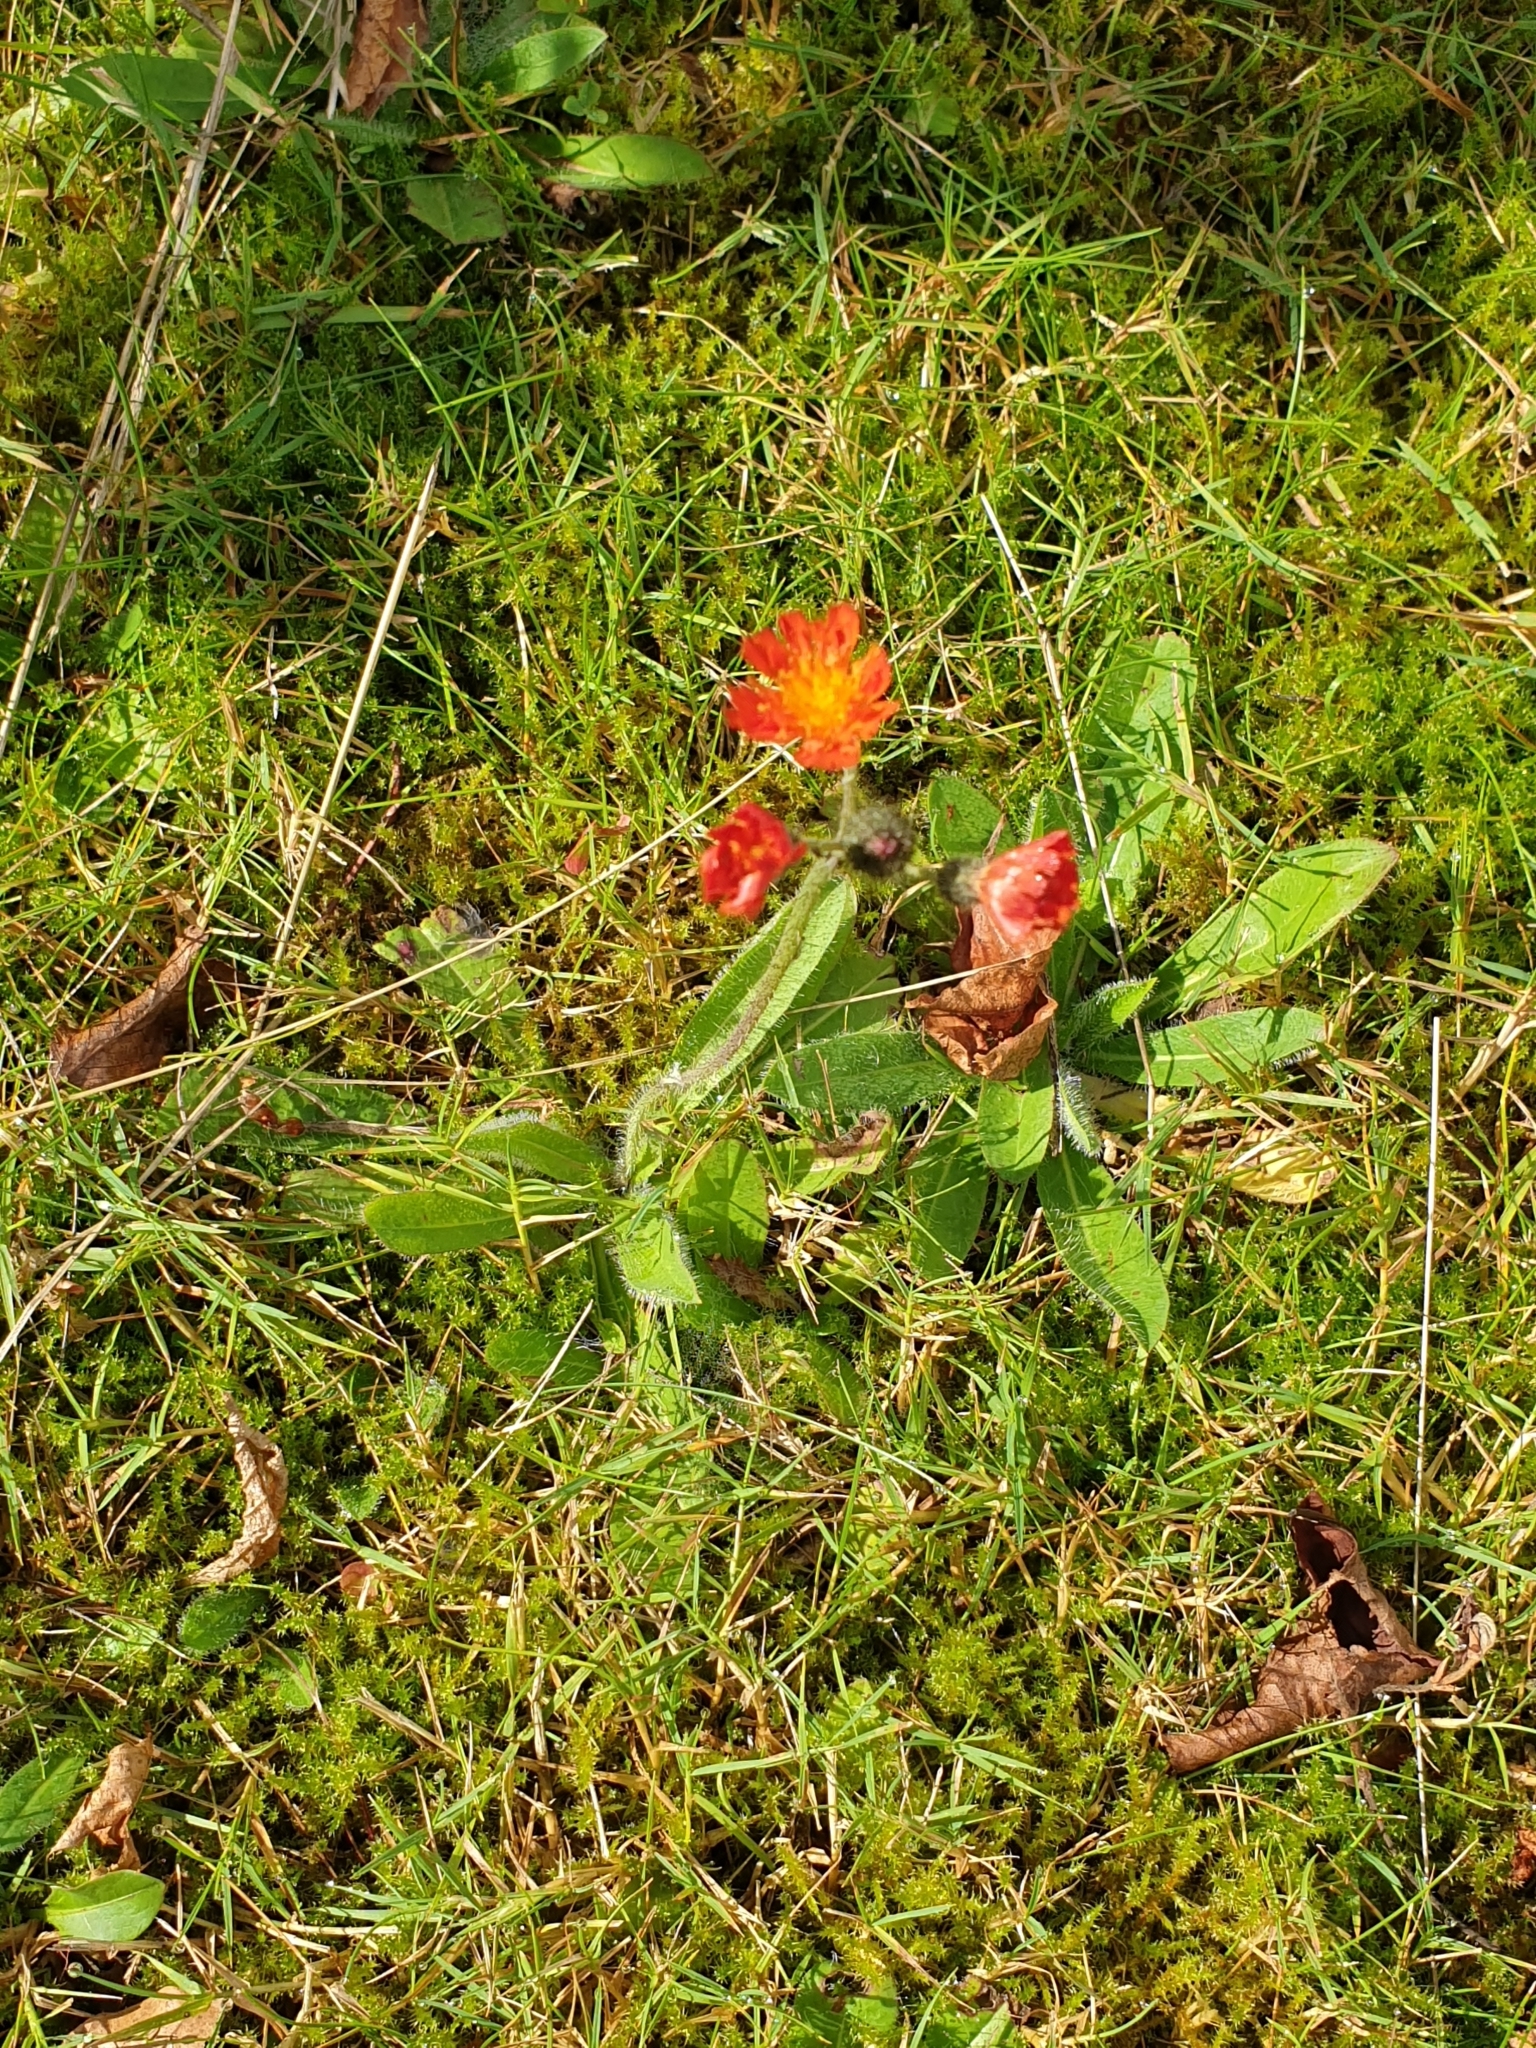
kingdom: Plantae
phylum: Tracheophyta
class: Magnoliopsida
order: Asterales
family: Asteraceae
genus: Pilosella
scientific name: Pilosella aurantiaca
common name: Fox-and-cubs
